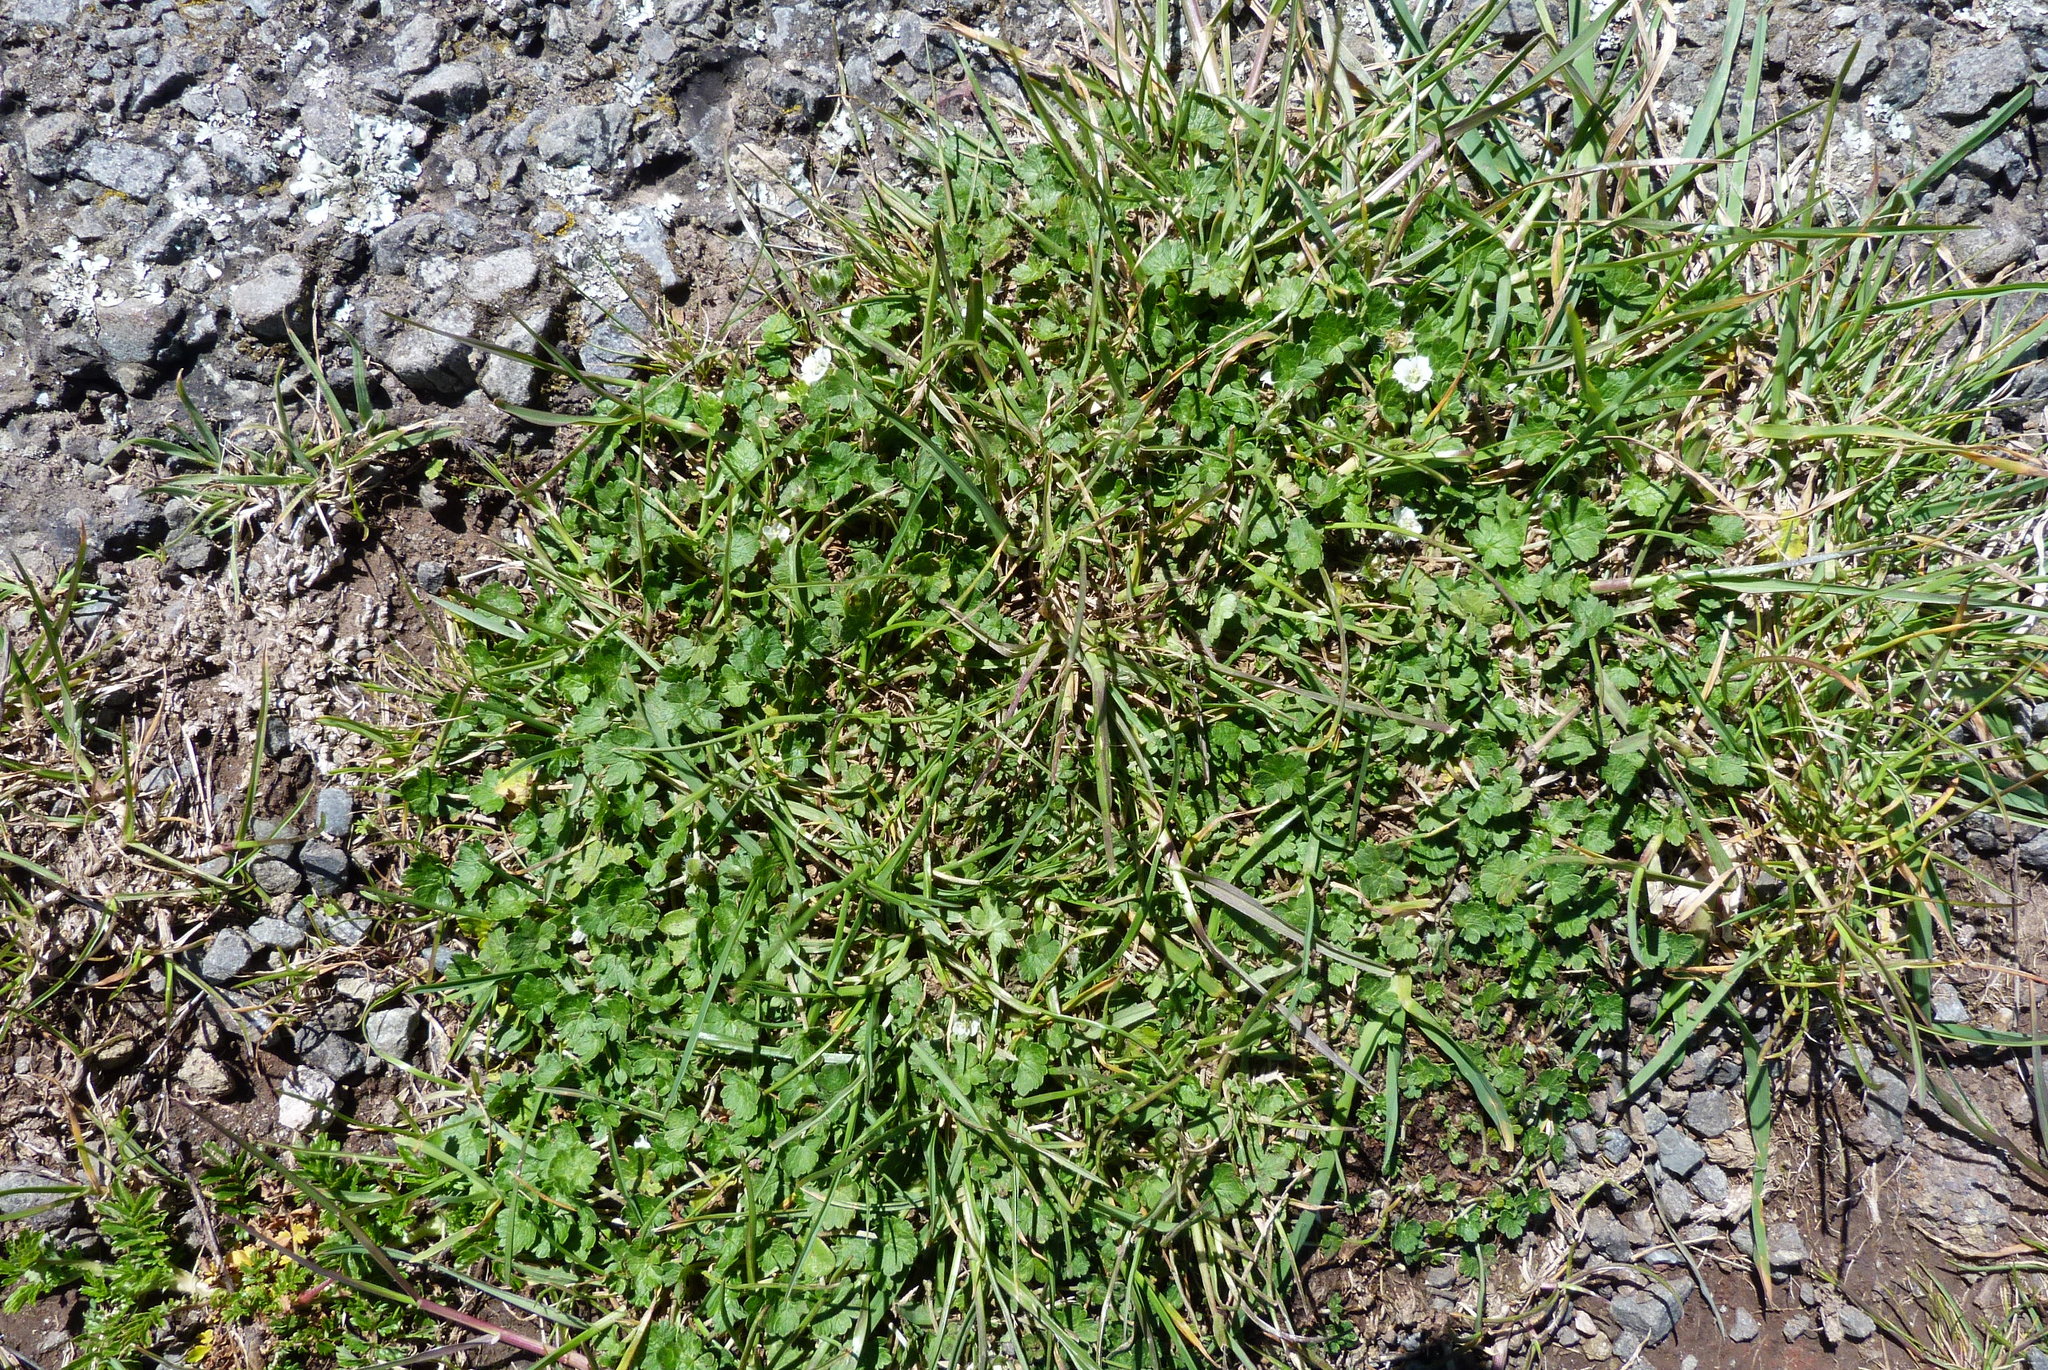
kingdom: Plantae
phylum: Tracheophyta
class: Magnoliopsida
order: Geraniales
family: Geraniaceae
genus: Geranium
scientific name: Geranium brevicaule
